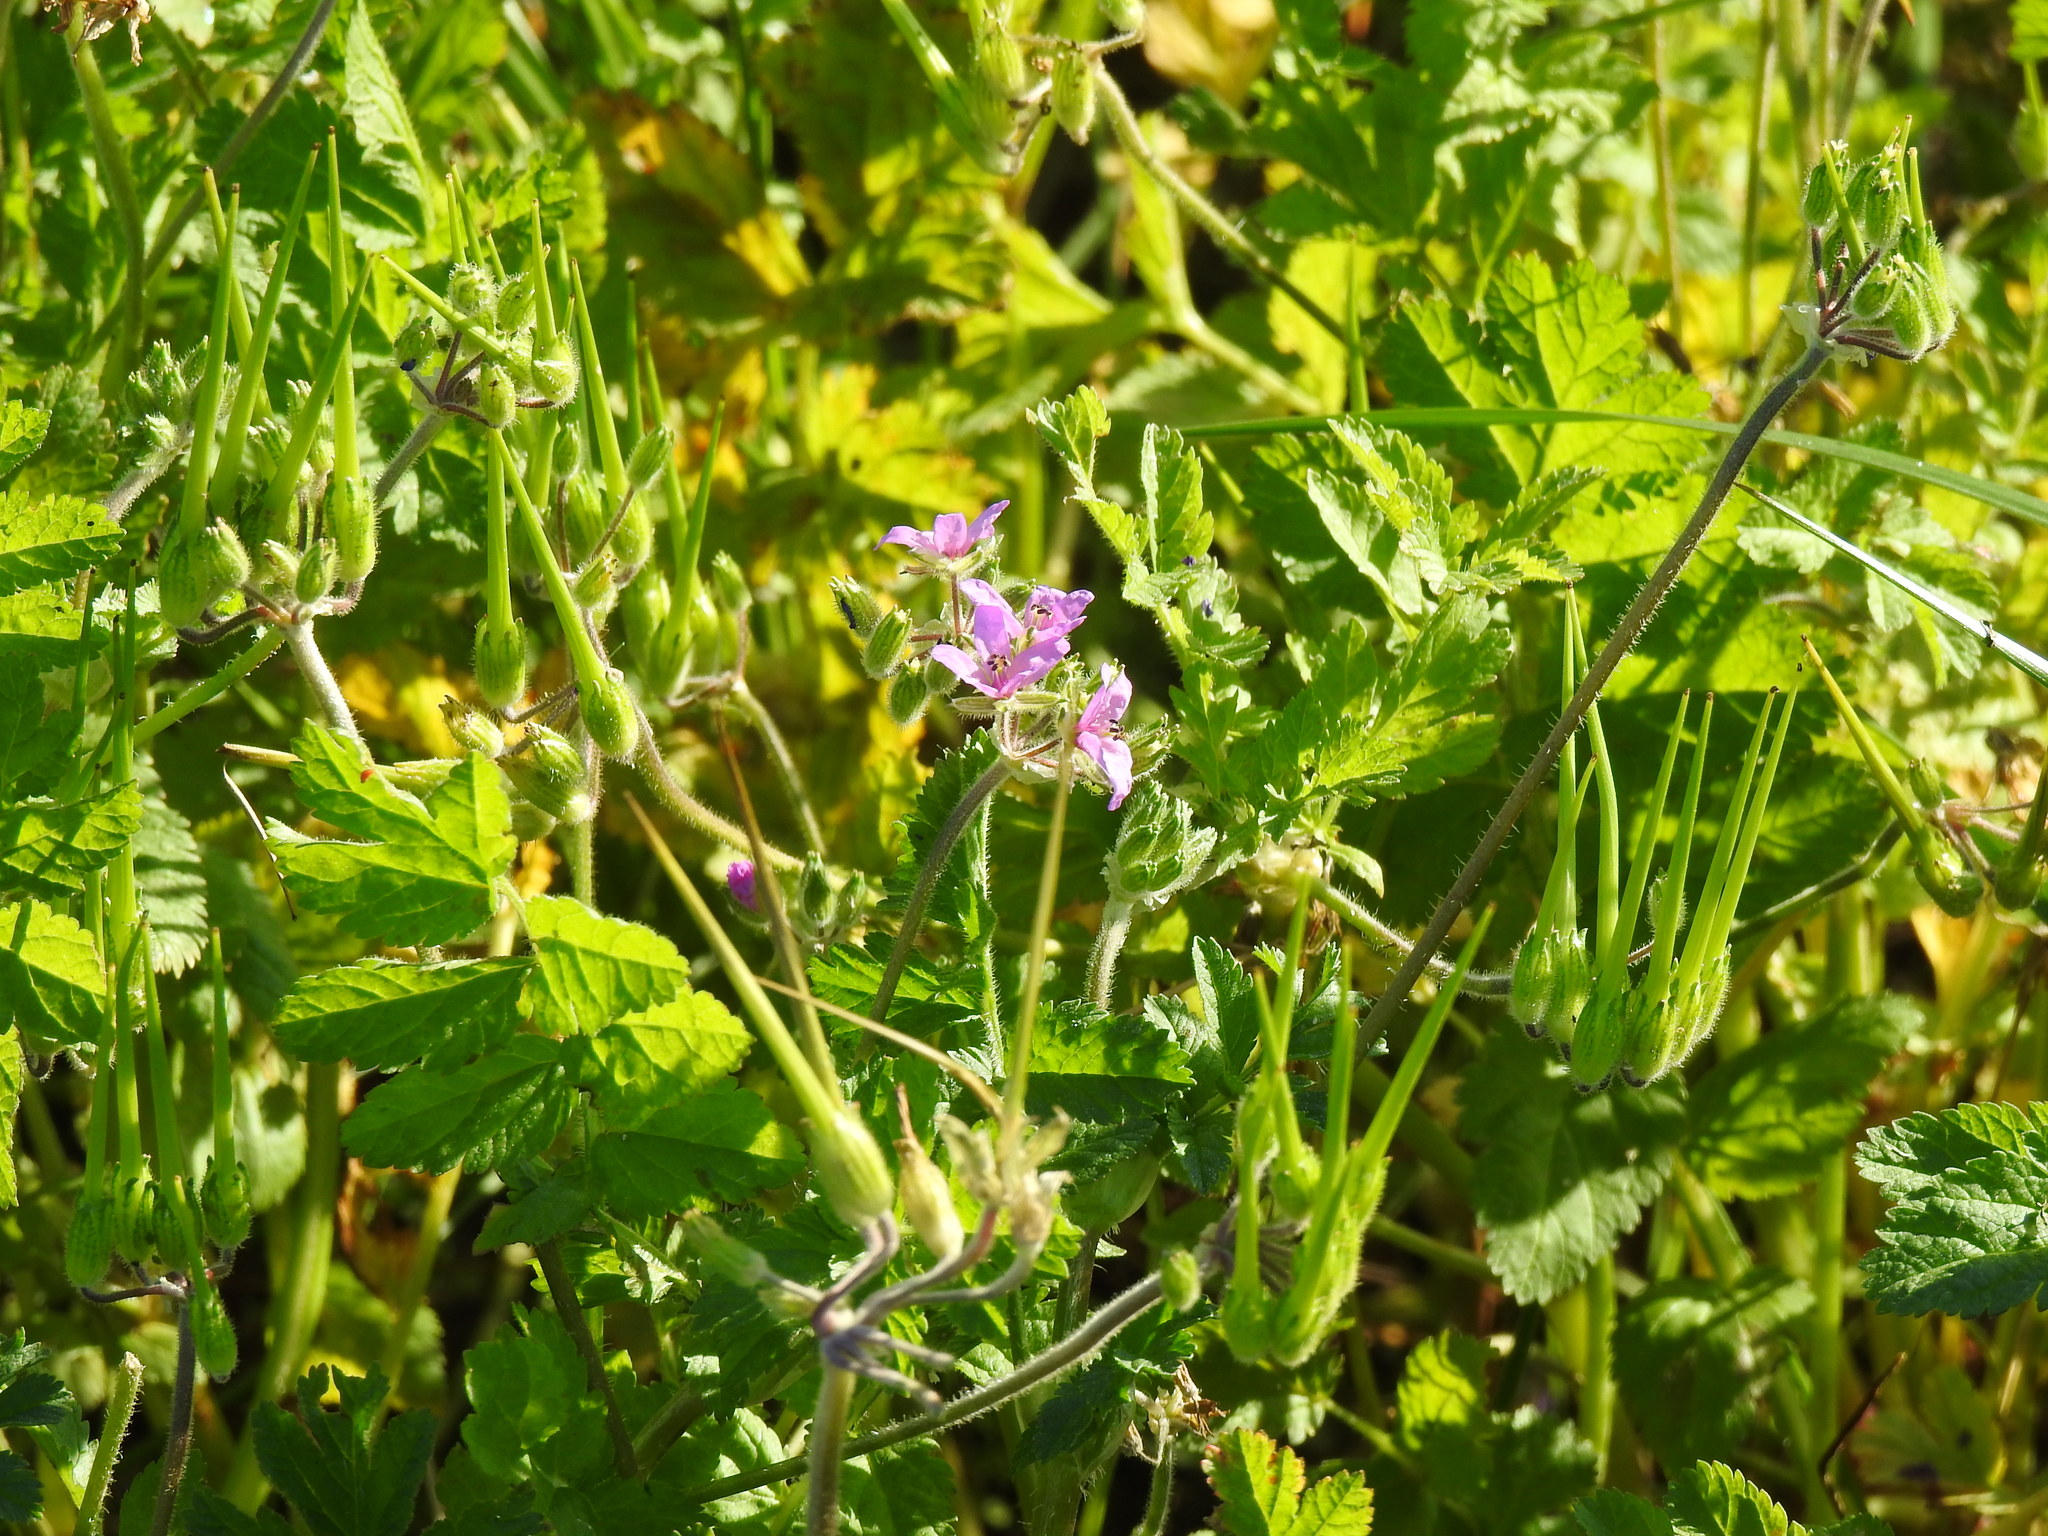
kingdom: Plantae
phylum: Tracheophyta
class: Magnoliopsida
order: Geraniales
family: Geraniaceae
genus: Erodium
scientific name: Erodium moschatum
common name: Musk stork's-bill
